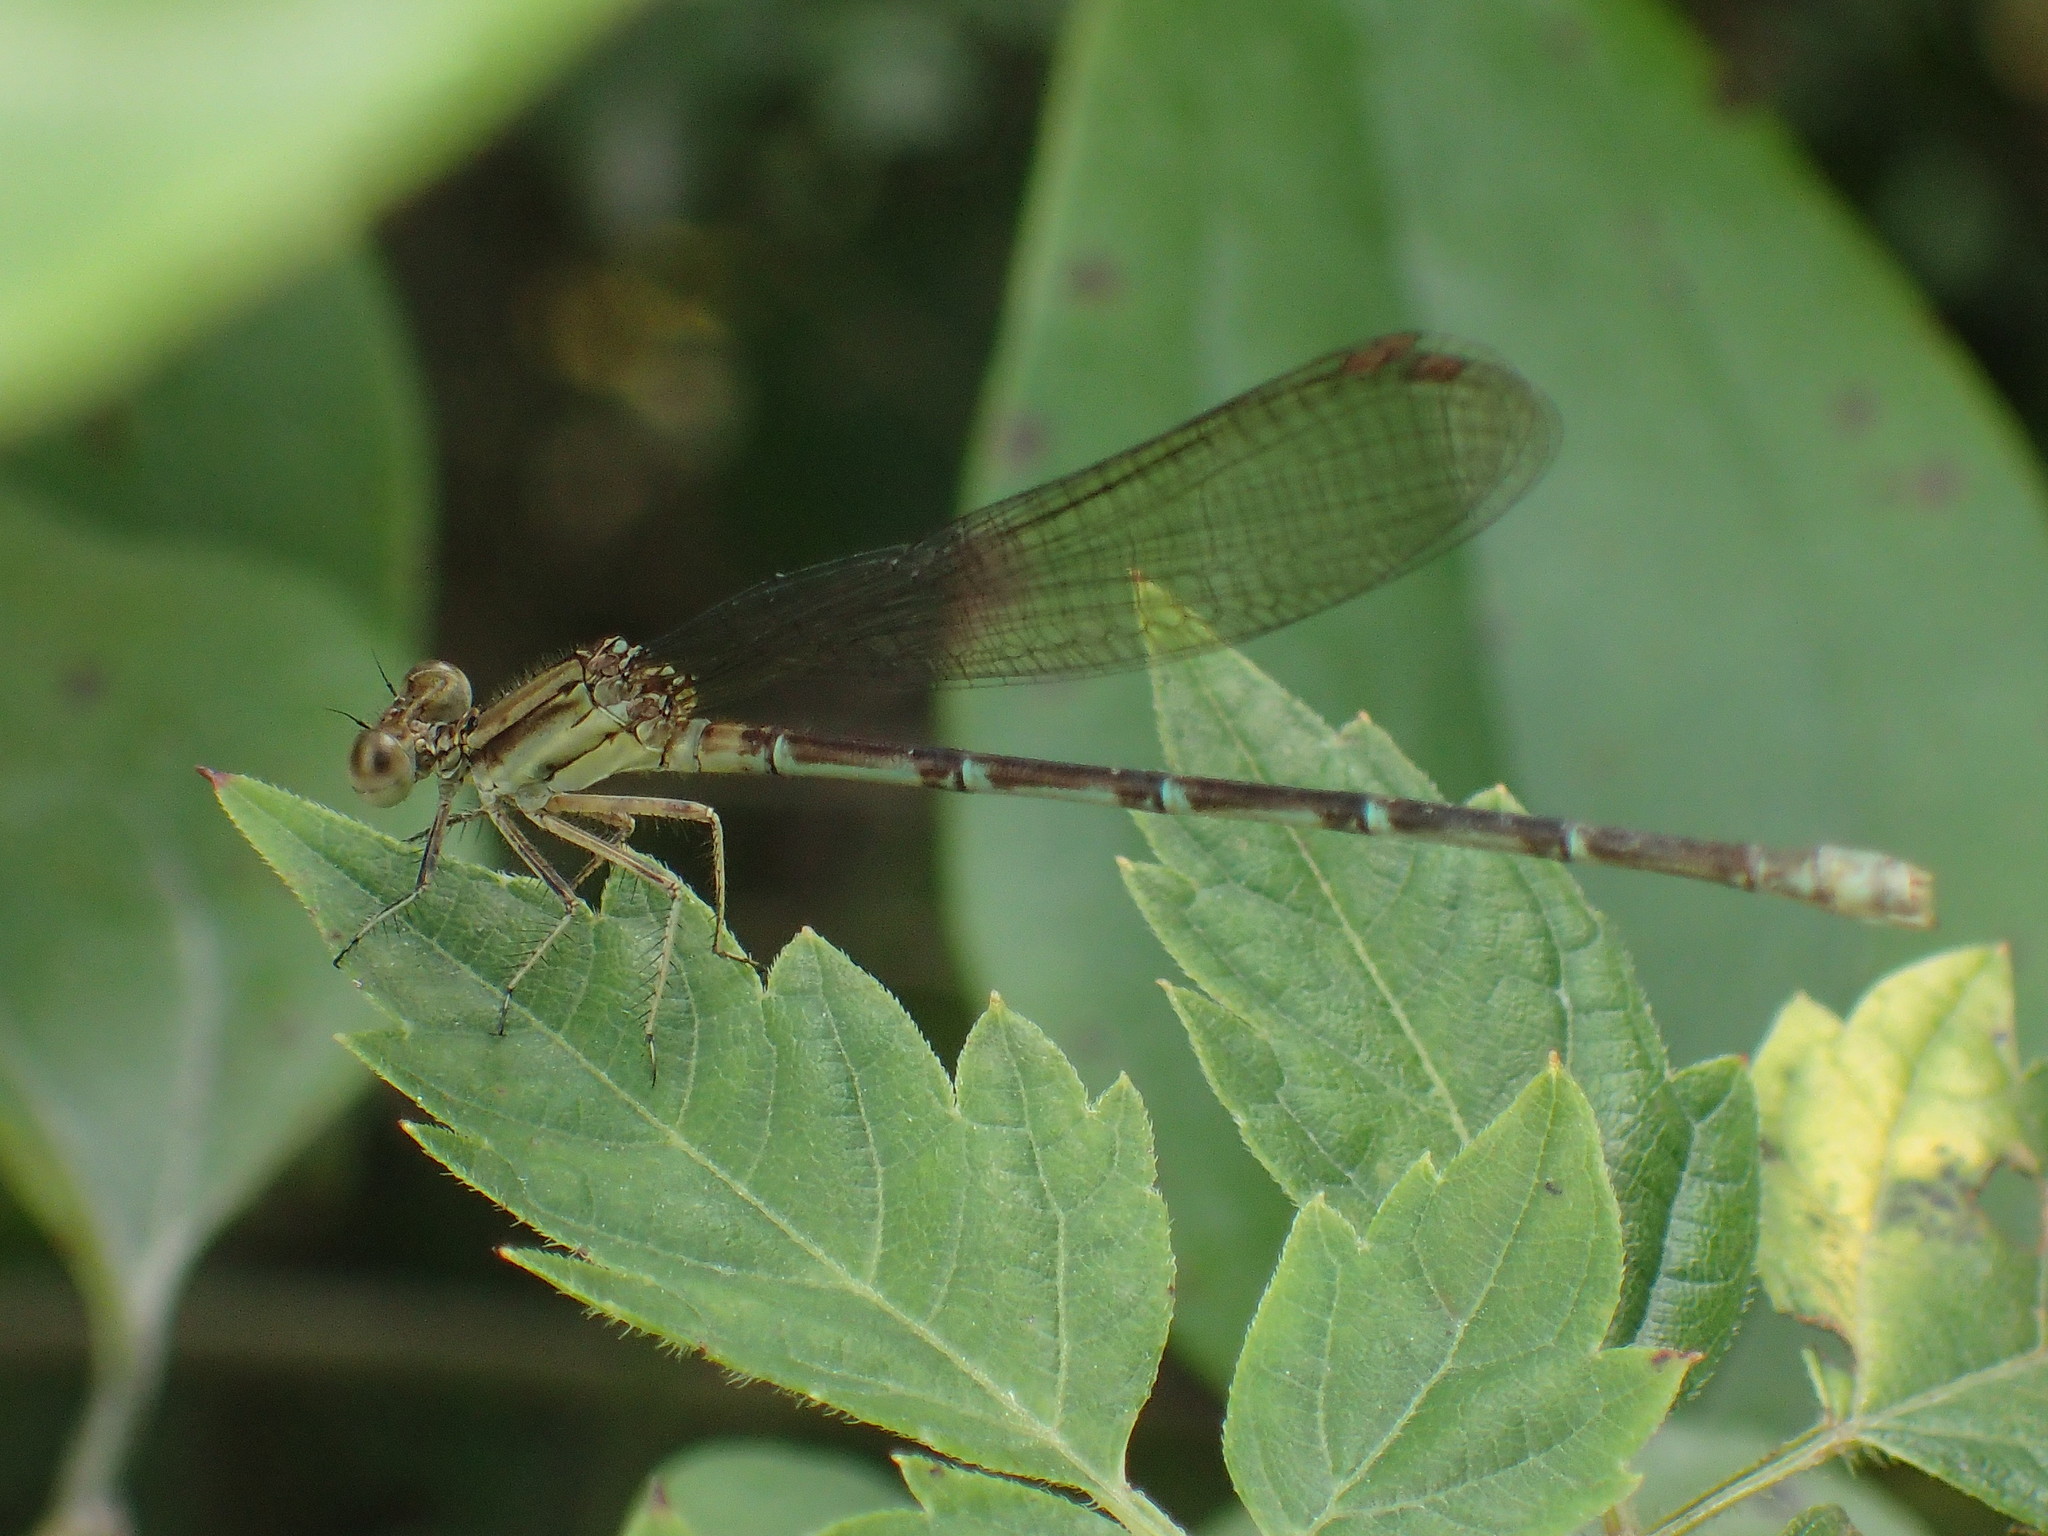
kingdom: Animalia
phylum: Arthropoda
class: Insecta
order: Odonata
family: Coenagrionidae
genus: Argia
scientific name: Argia sedula
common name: Blue-ringed dancer
